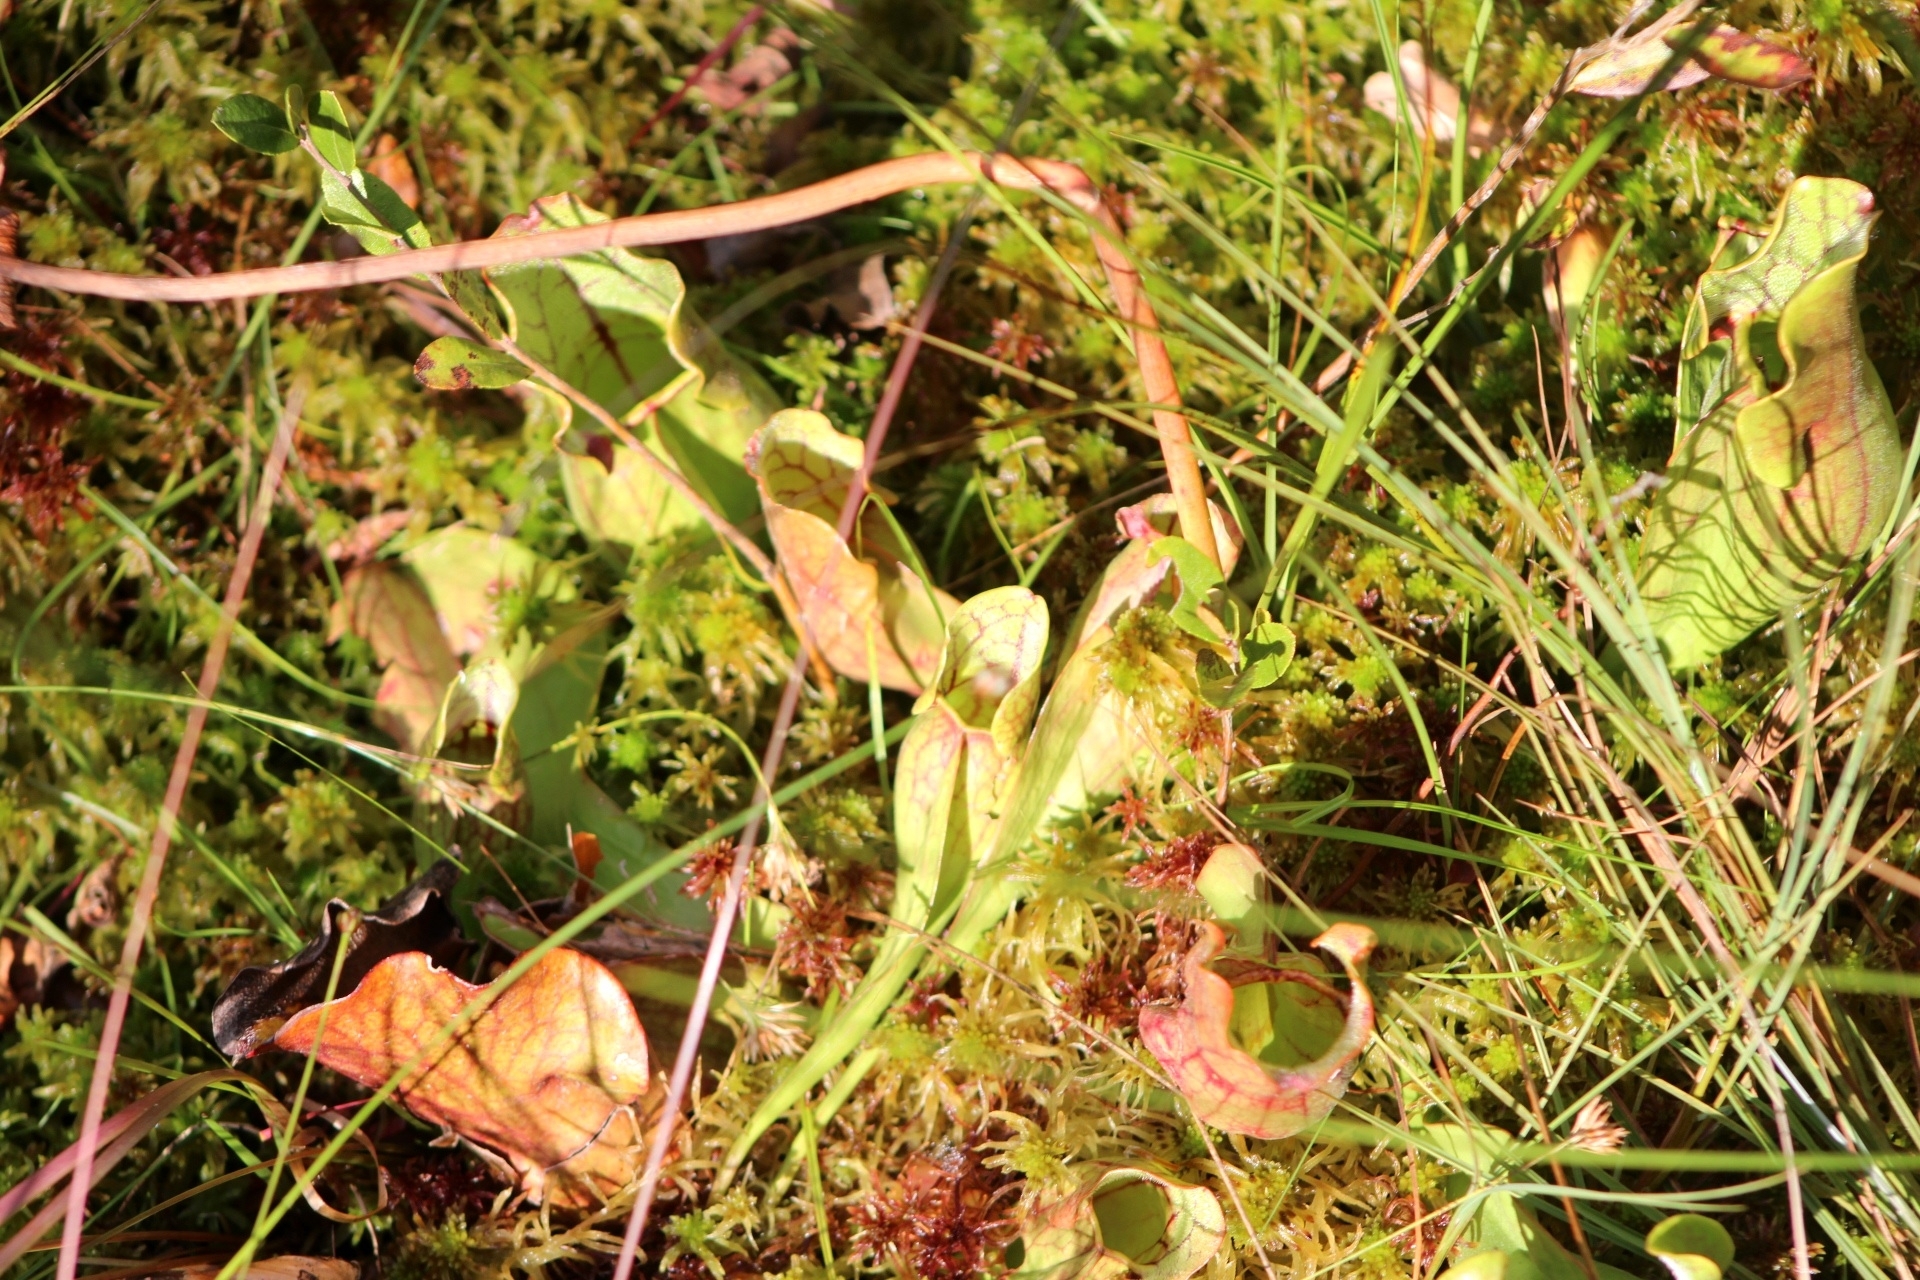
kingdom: Plantae
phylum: Tracheophyta
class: Magnoliopsida
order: Ericales
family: Sarraceniaceae
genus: Sarracenia
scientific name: Sarracenia purpurea
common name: Pitcherplant
